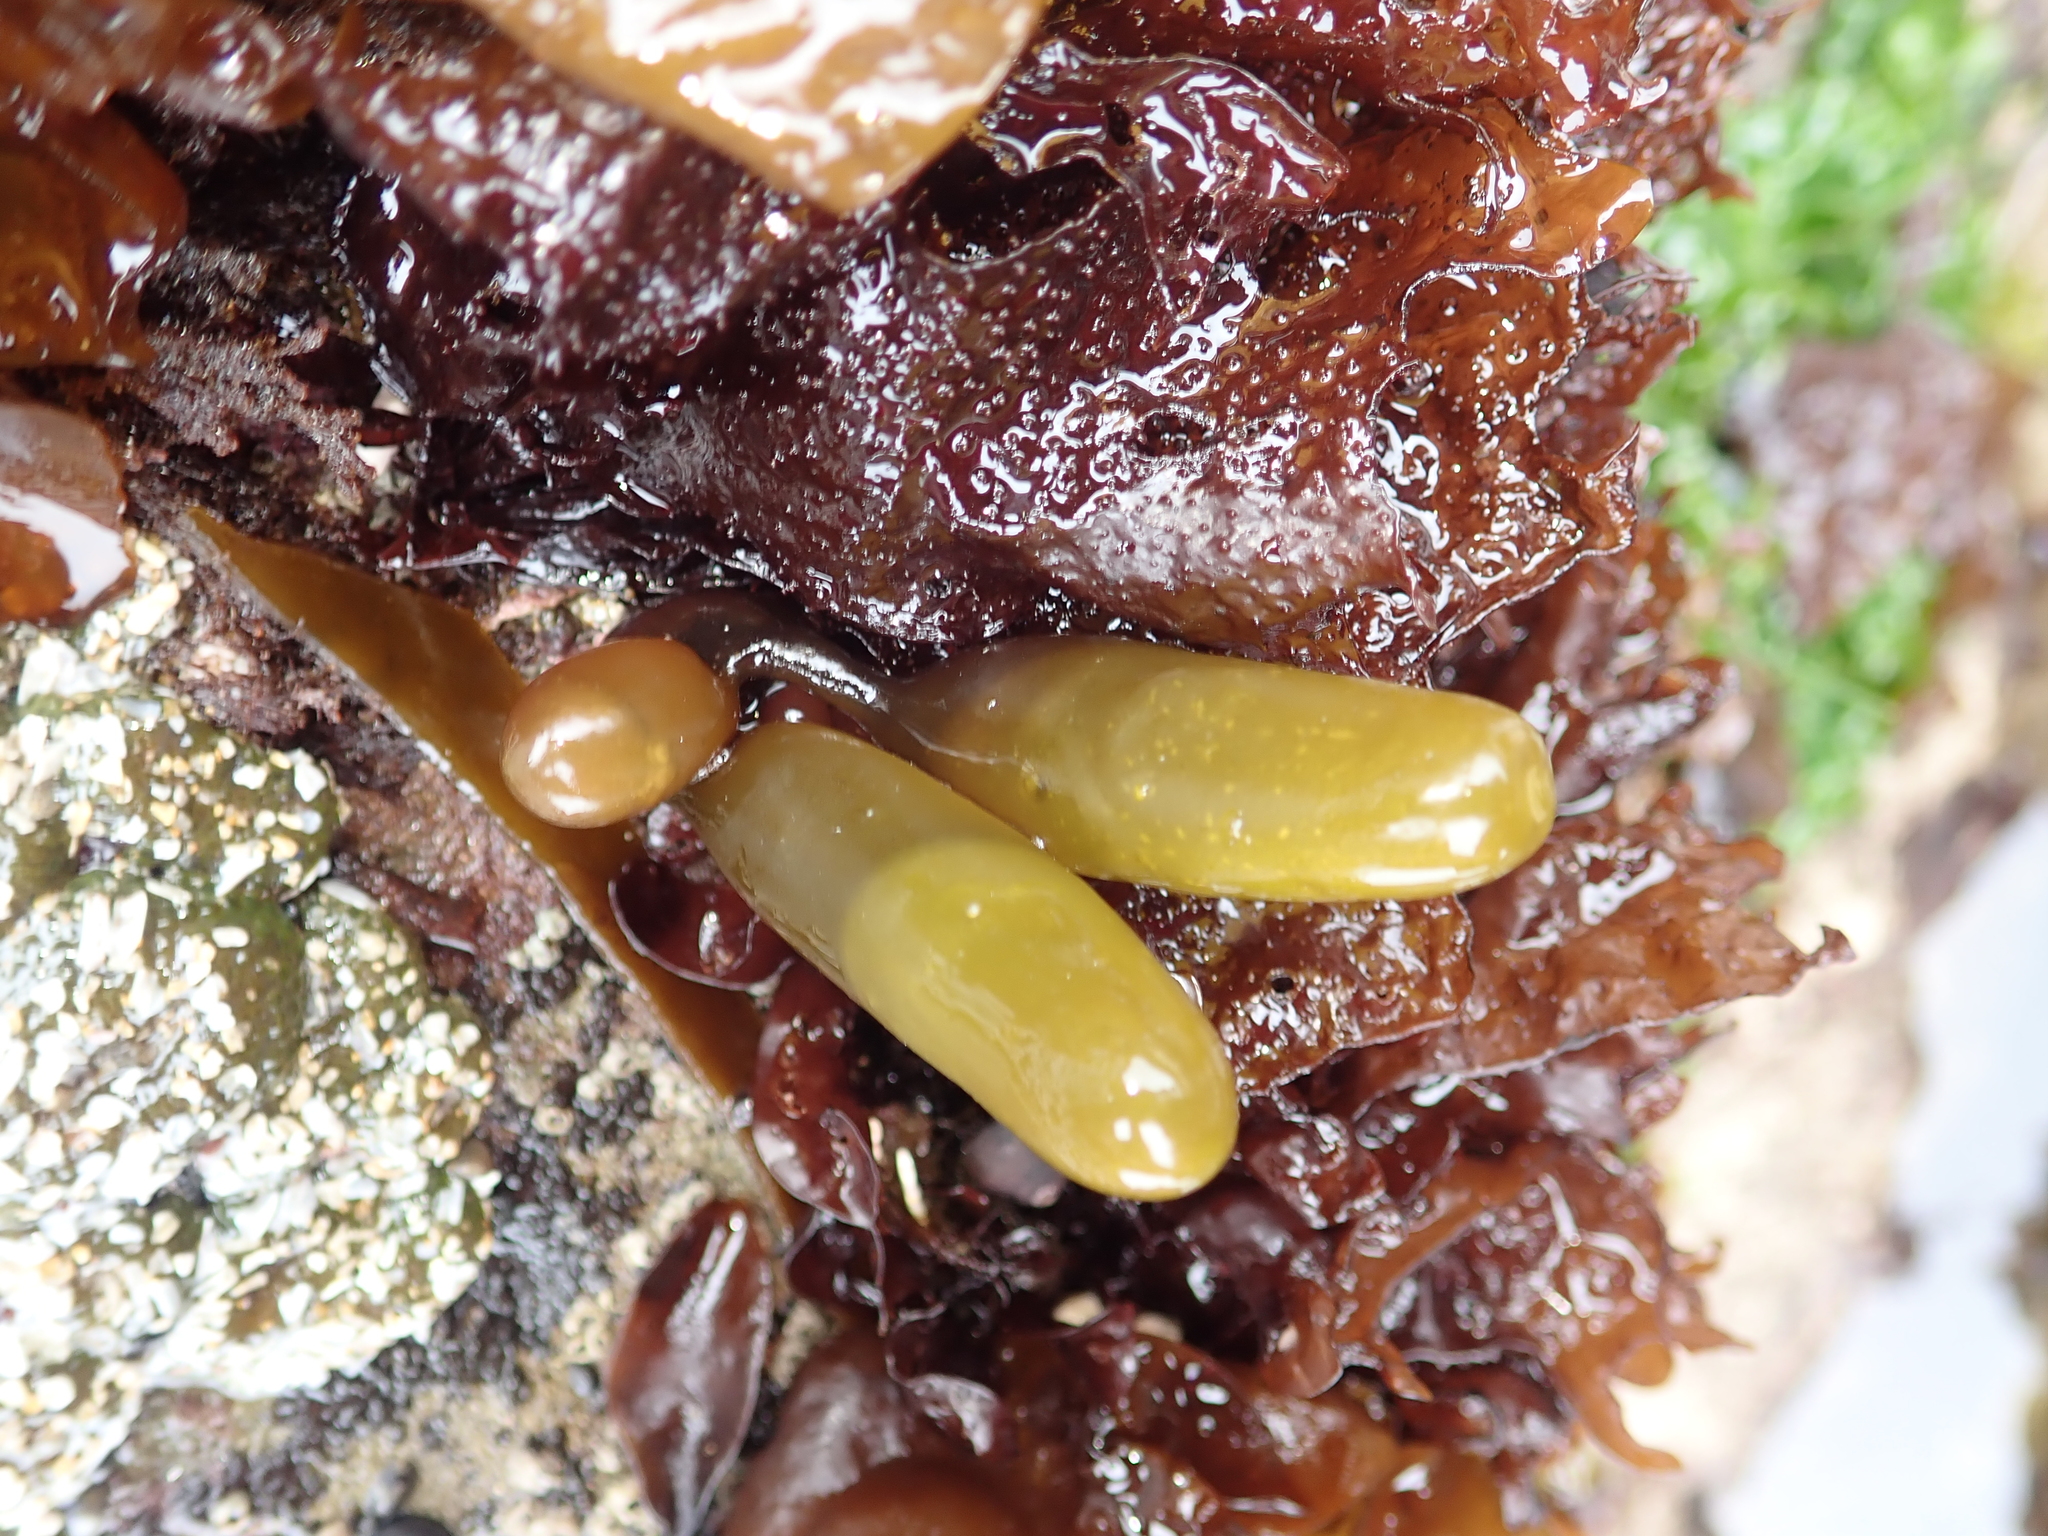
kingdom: Plantae
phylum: Rhodophyta
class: Florideophyceae
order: Palmariales
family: Palmariaceae
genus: Halosaccion
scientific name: Halosaccion glandiforme
